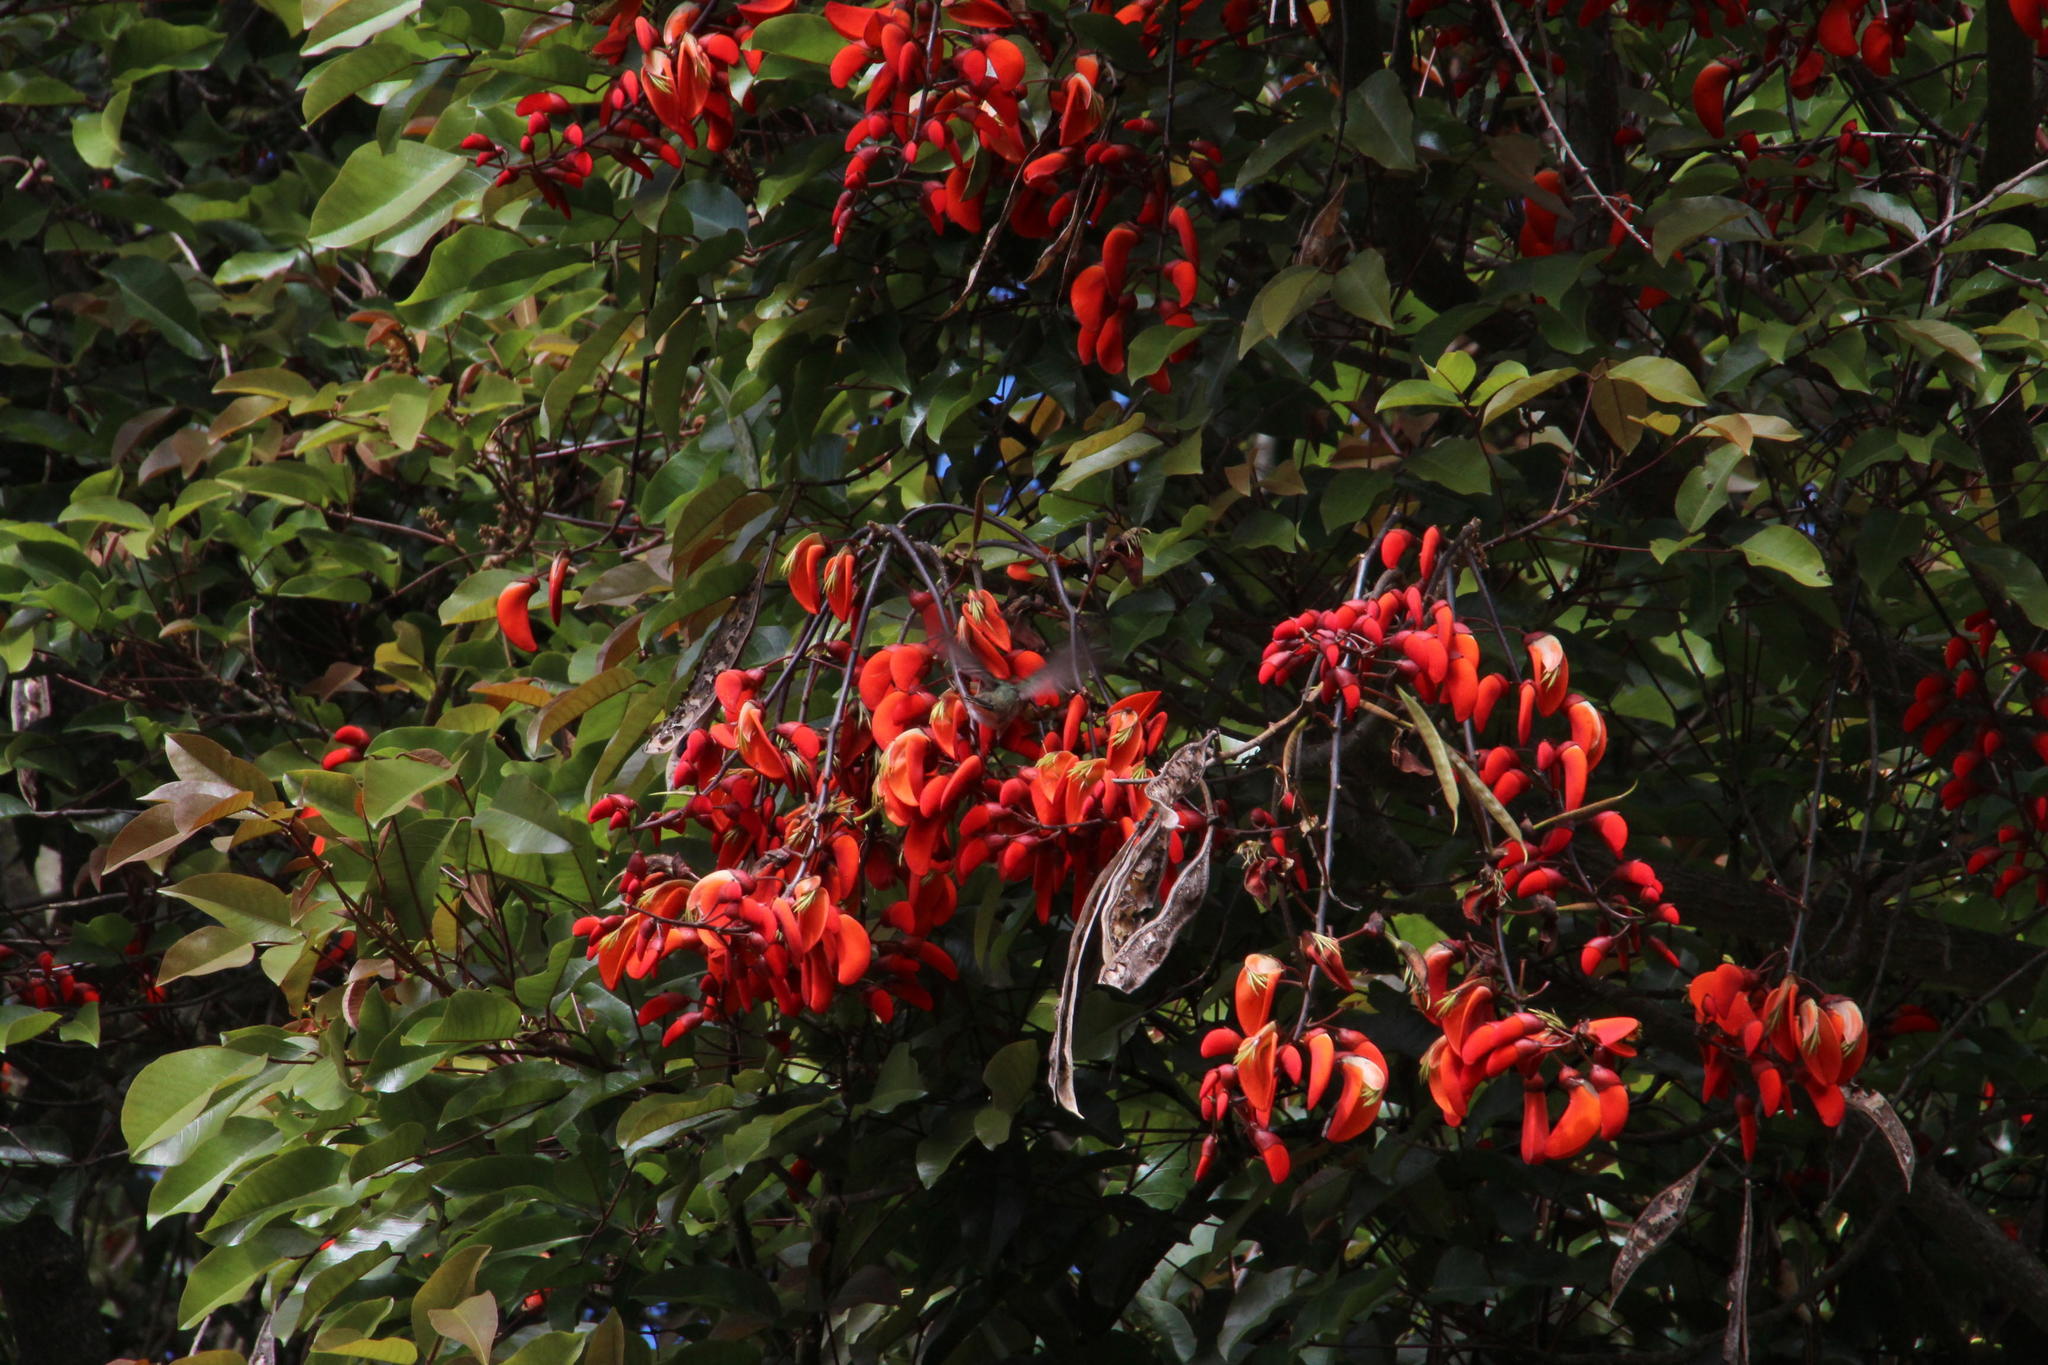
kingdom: Plantae
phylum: Tracheophyta
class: Magnoliopsida
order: Fabales
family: Fabaceae
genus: Erythrina
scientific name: Erythrina falcata
